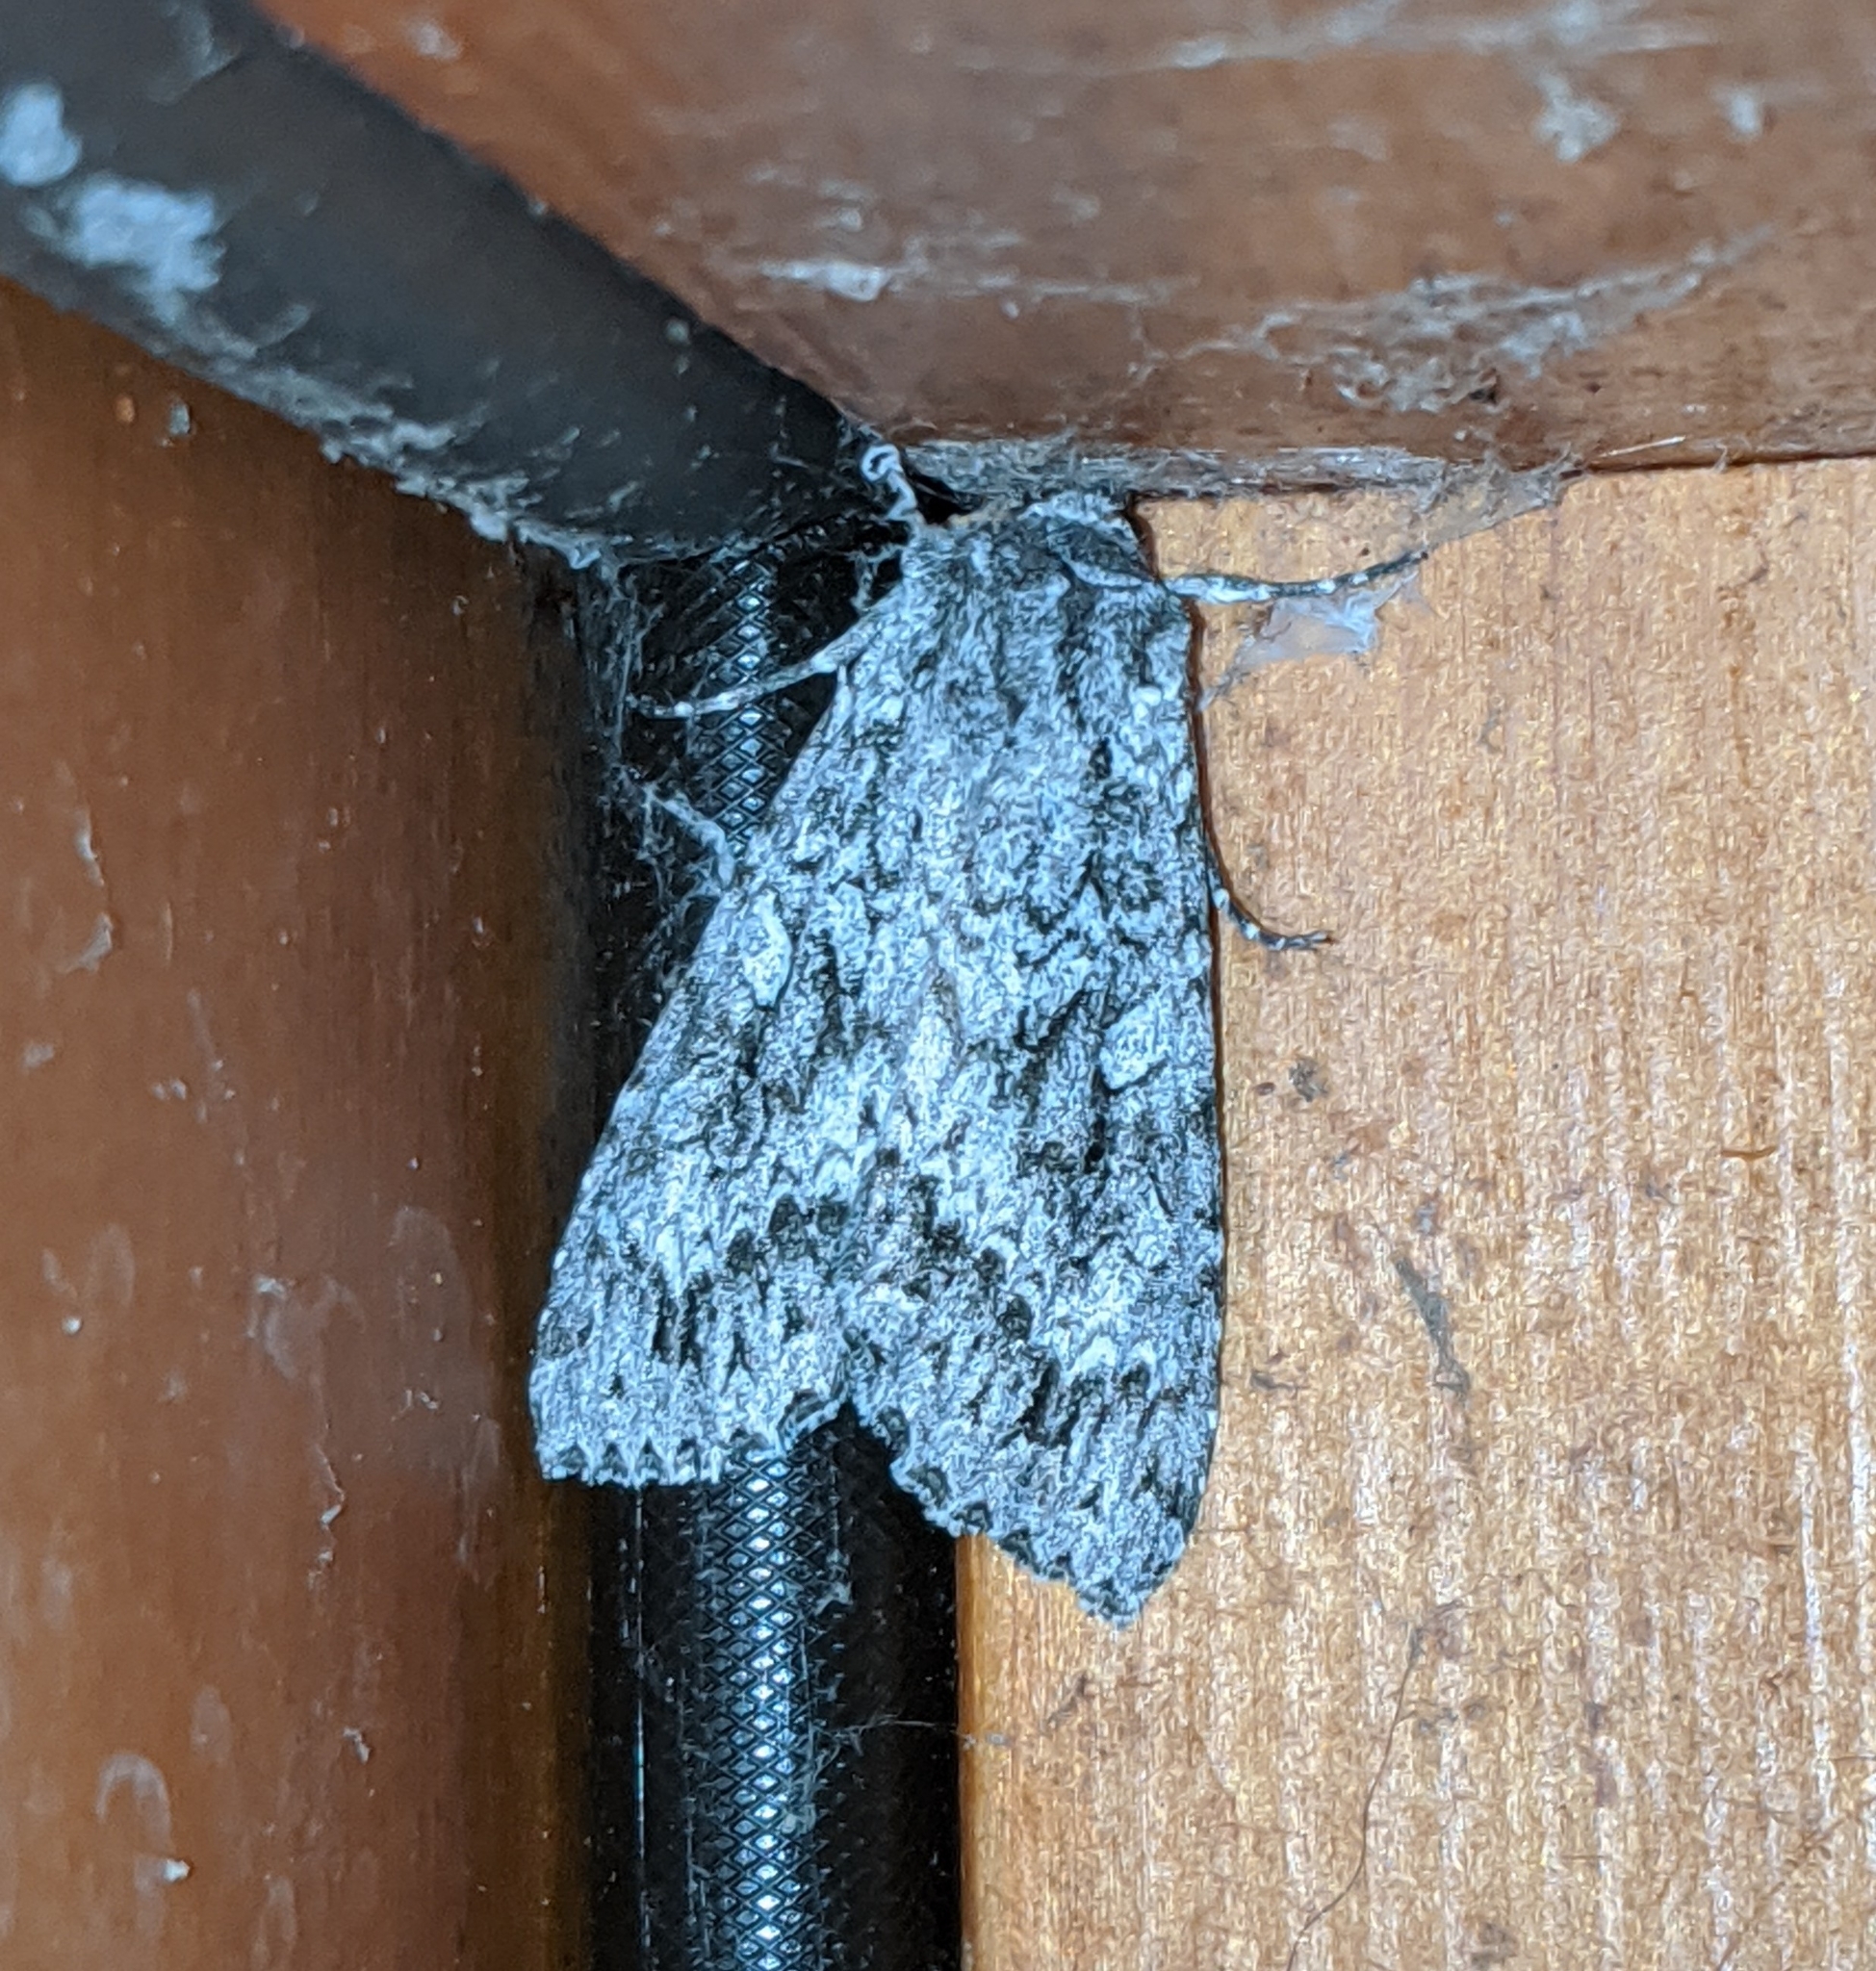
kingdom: Animalia
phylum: Arthropoda
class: Insecta
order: Lepidoptera
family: Noctuidae
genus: Eurois
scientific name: Eurois occulta
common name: Great brocade
